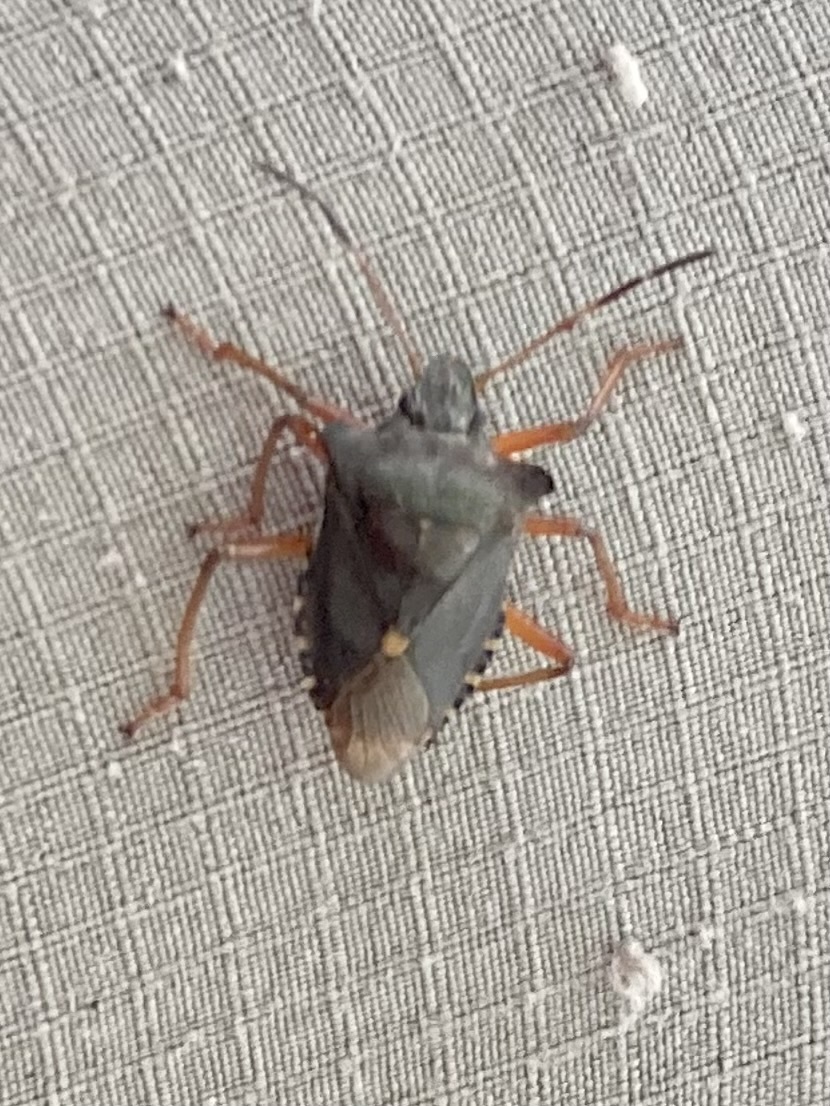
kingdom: Animalia
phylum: Arthropoda
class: Insecta
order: Hemiptera
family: Pentatomidae
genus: Pentatoma
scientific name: Pentatoma rufipes
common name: Forest bug
